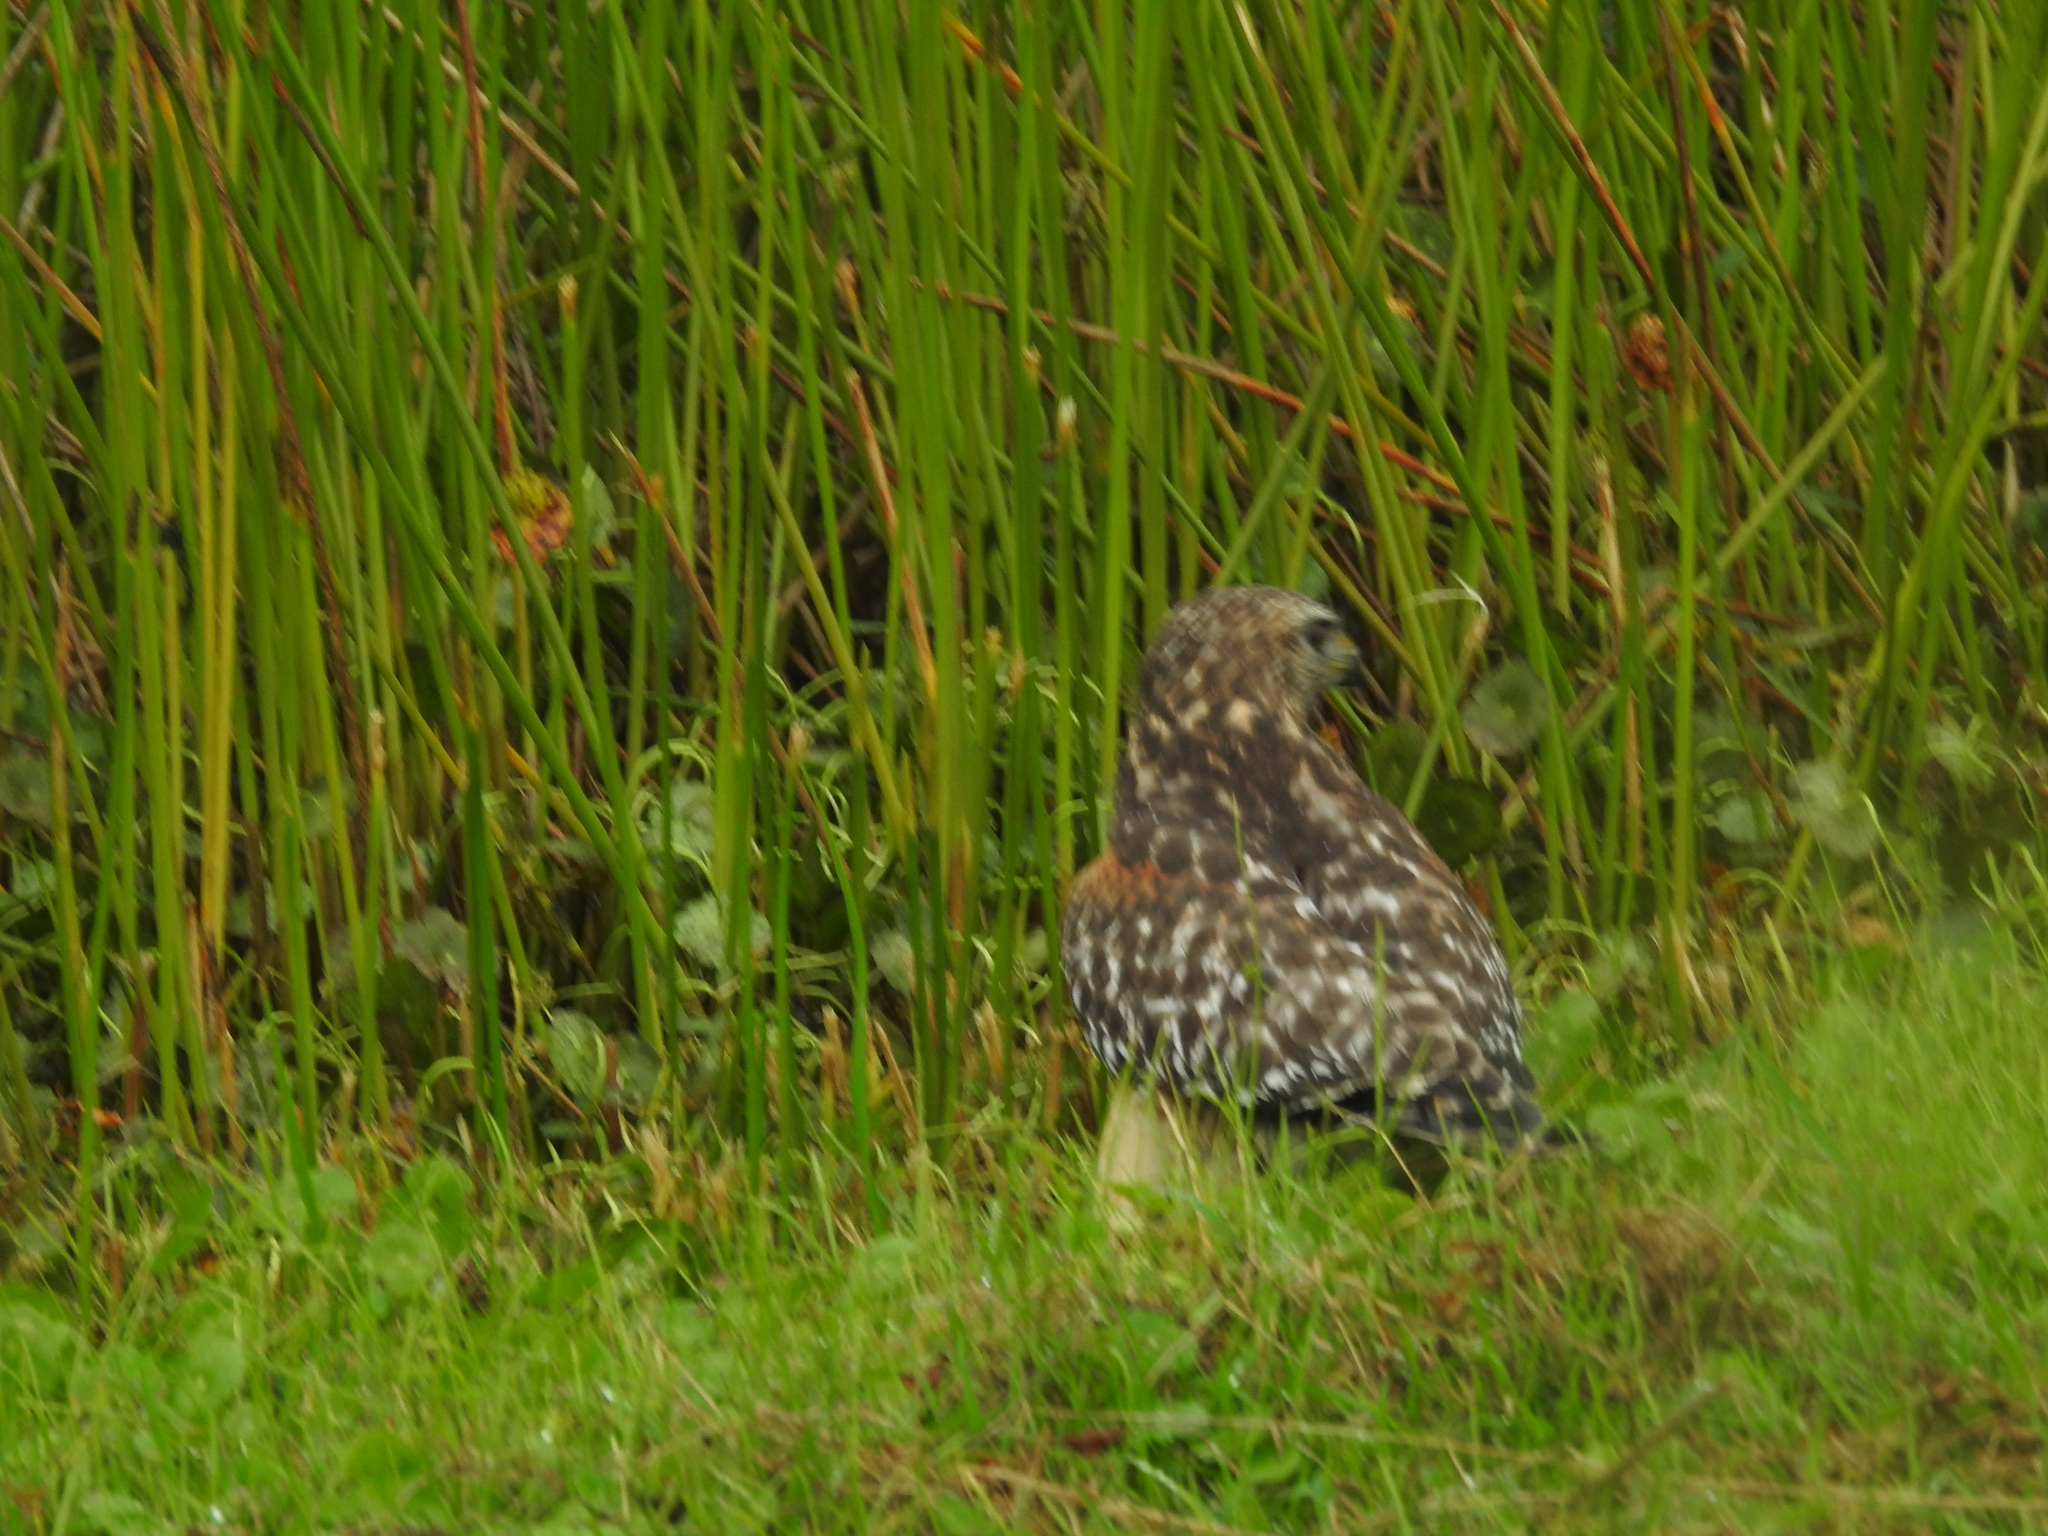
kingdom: Animalia
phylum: Chordata
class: Aves
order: Accipitriformes
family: Accipitridae
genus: Buteo
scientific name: Buteo lineatus
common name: Red-shouldered hawk
